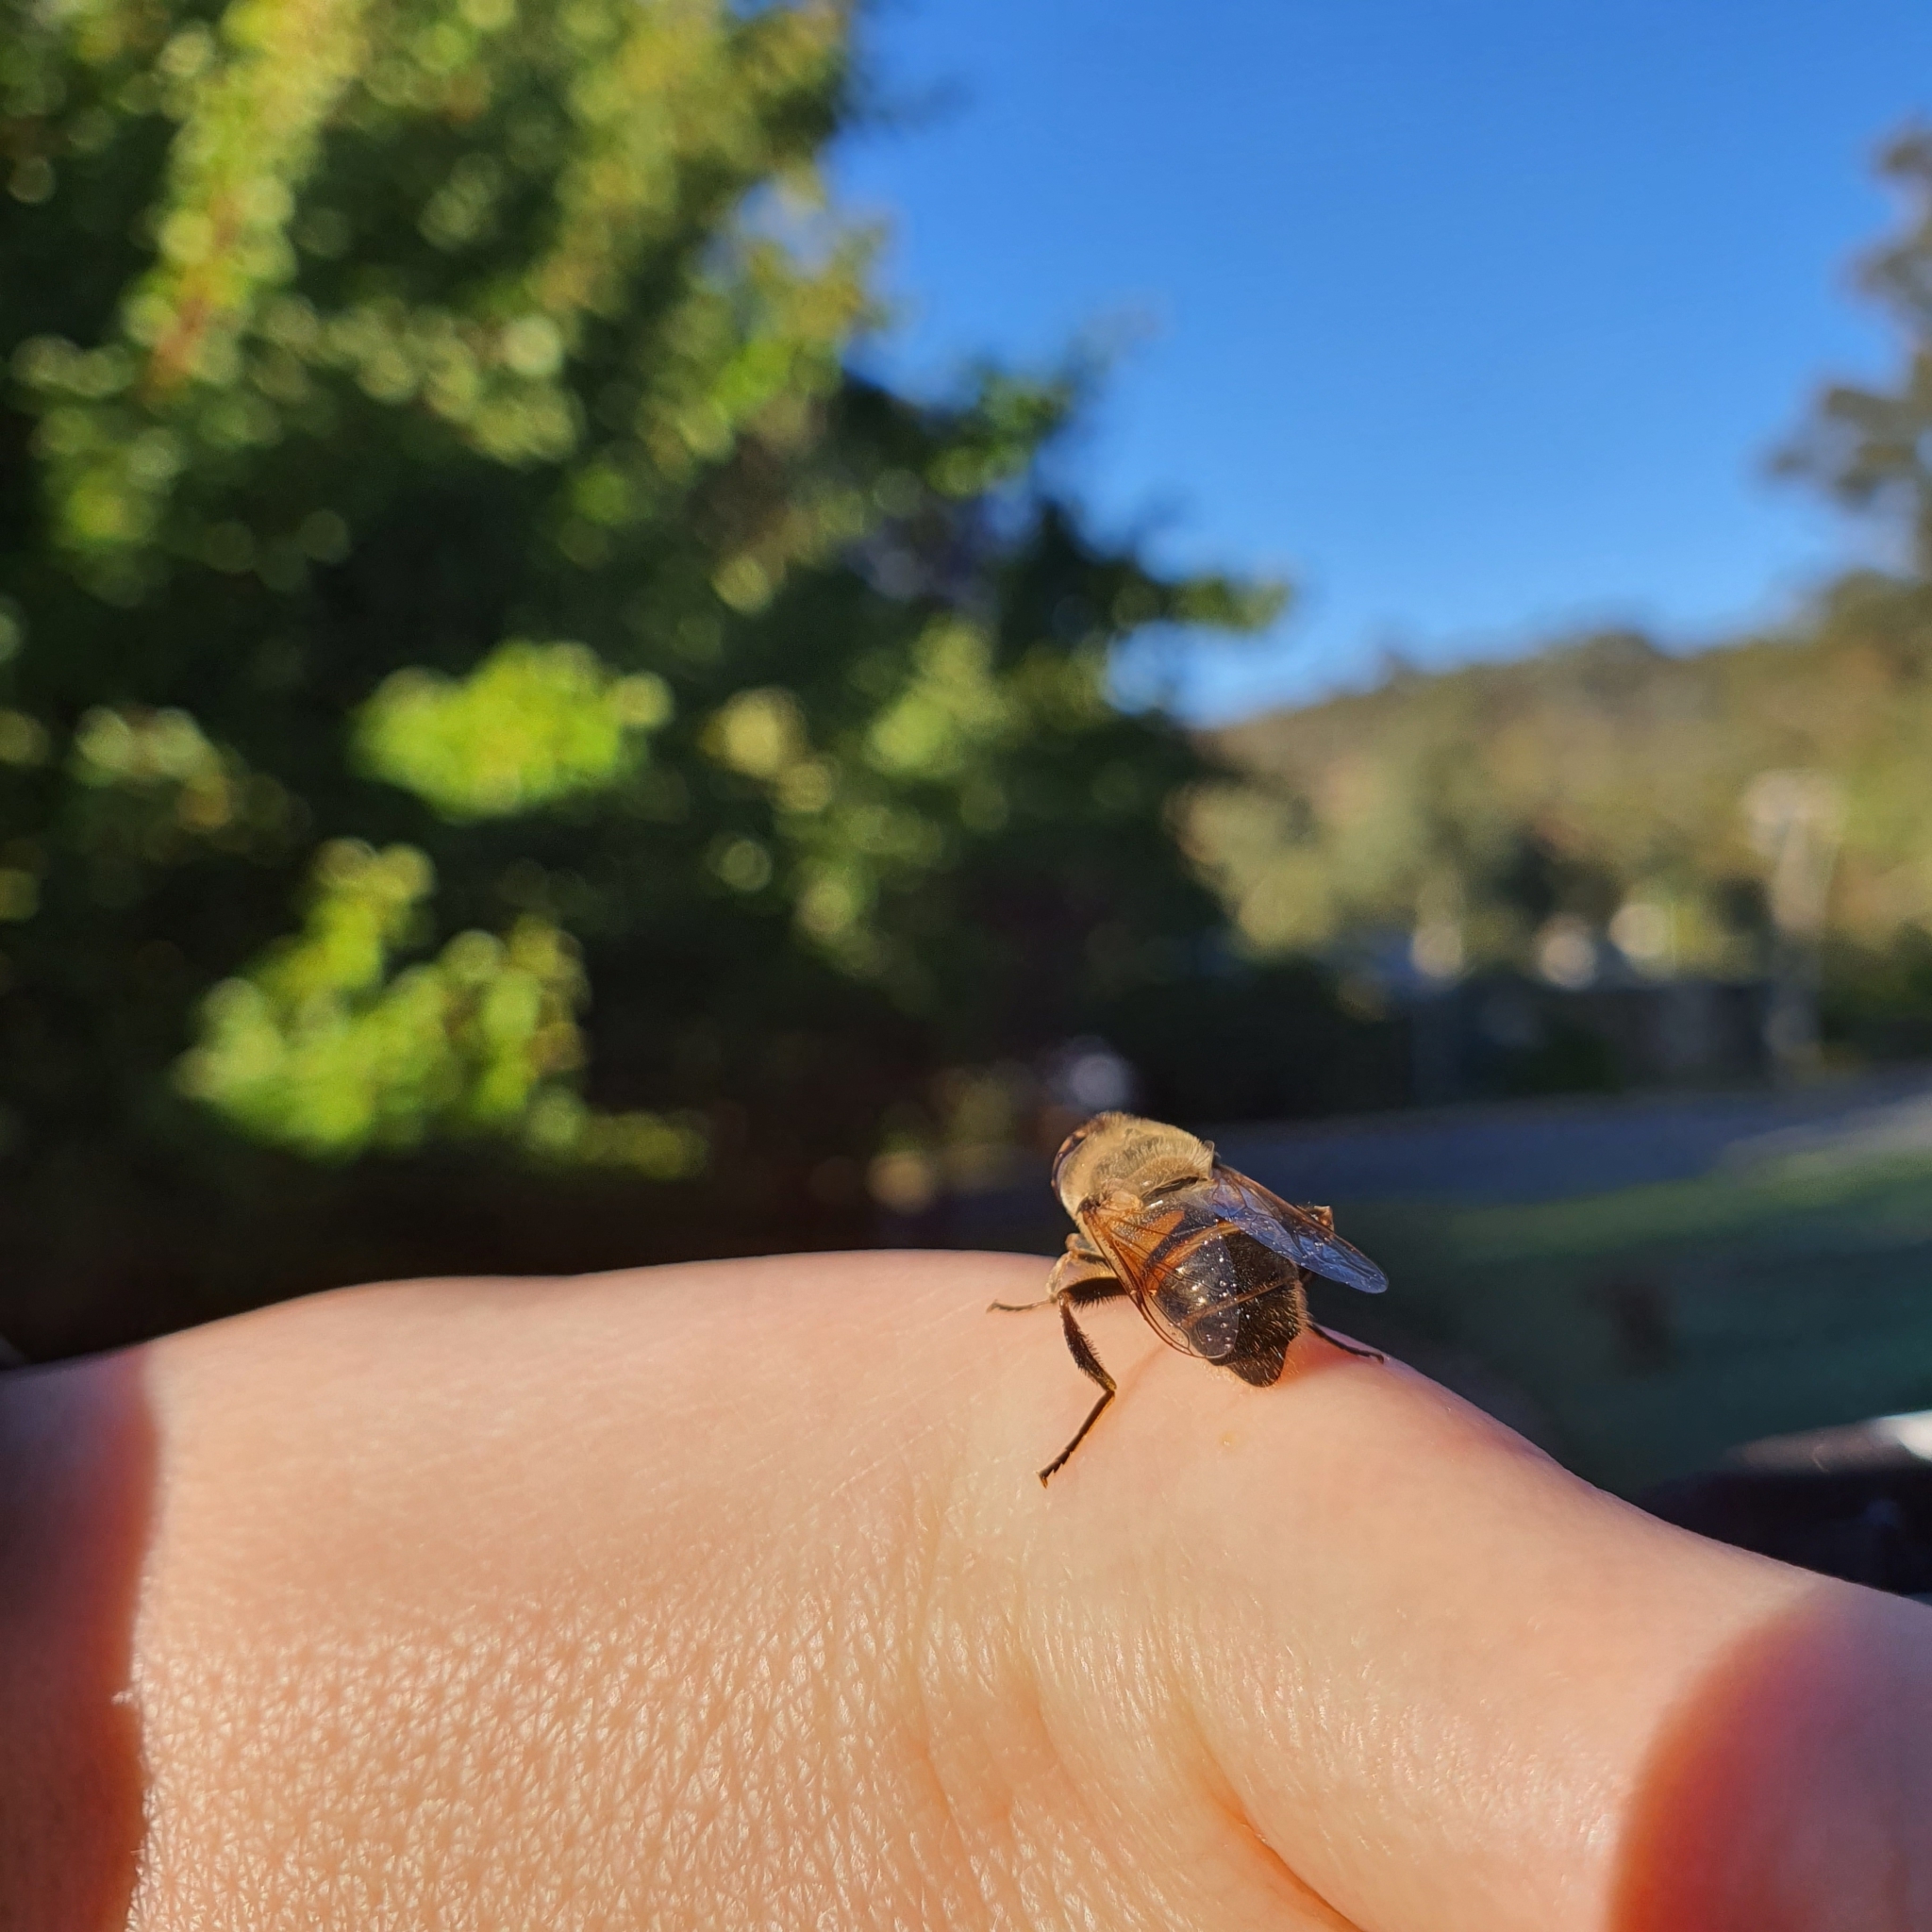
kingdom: Animalia
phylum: Arthropoda
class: Insecta
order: Diptera
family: Syrphidae
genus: Eristalis
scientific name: Eristalis tenax
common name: Drone fly
